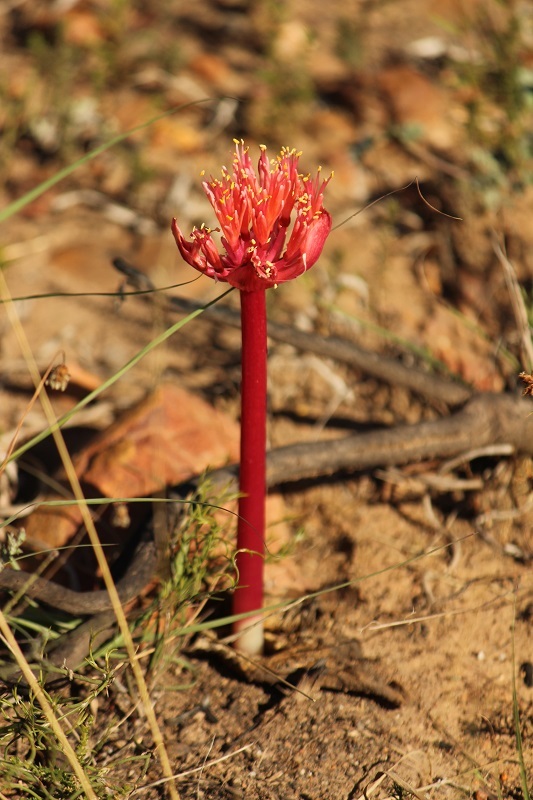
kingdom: Plantae
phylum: Tracheophyta
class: Liliopsida
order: Asparagales
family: Amaryllidaceae
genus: Haemanthus
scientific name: Haemanthus sanguineus
